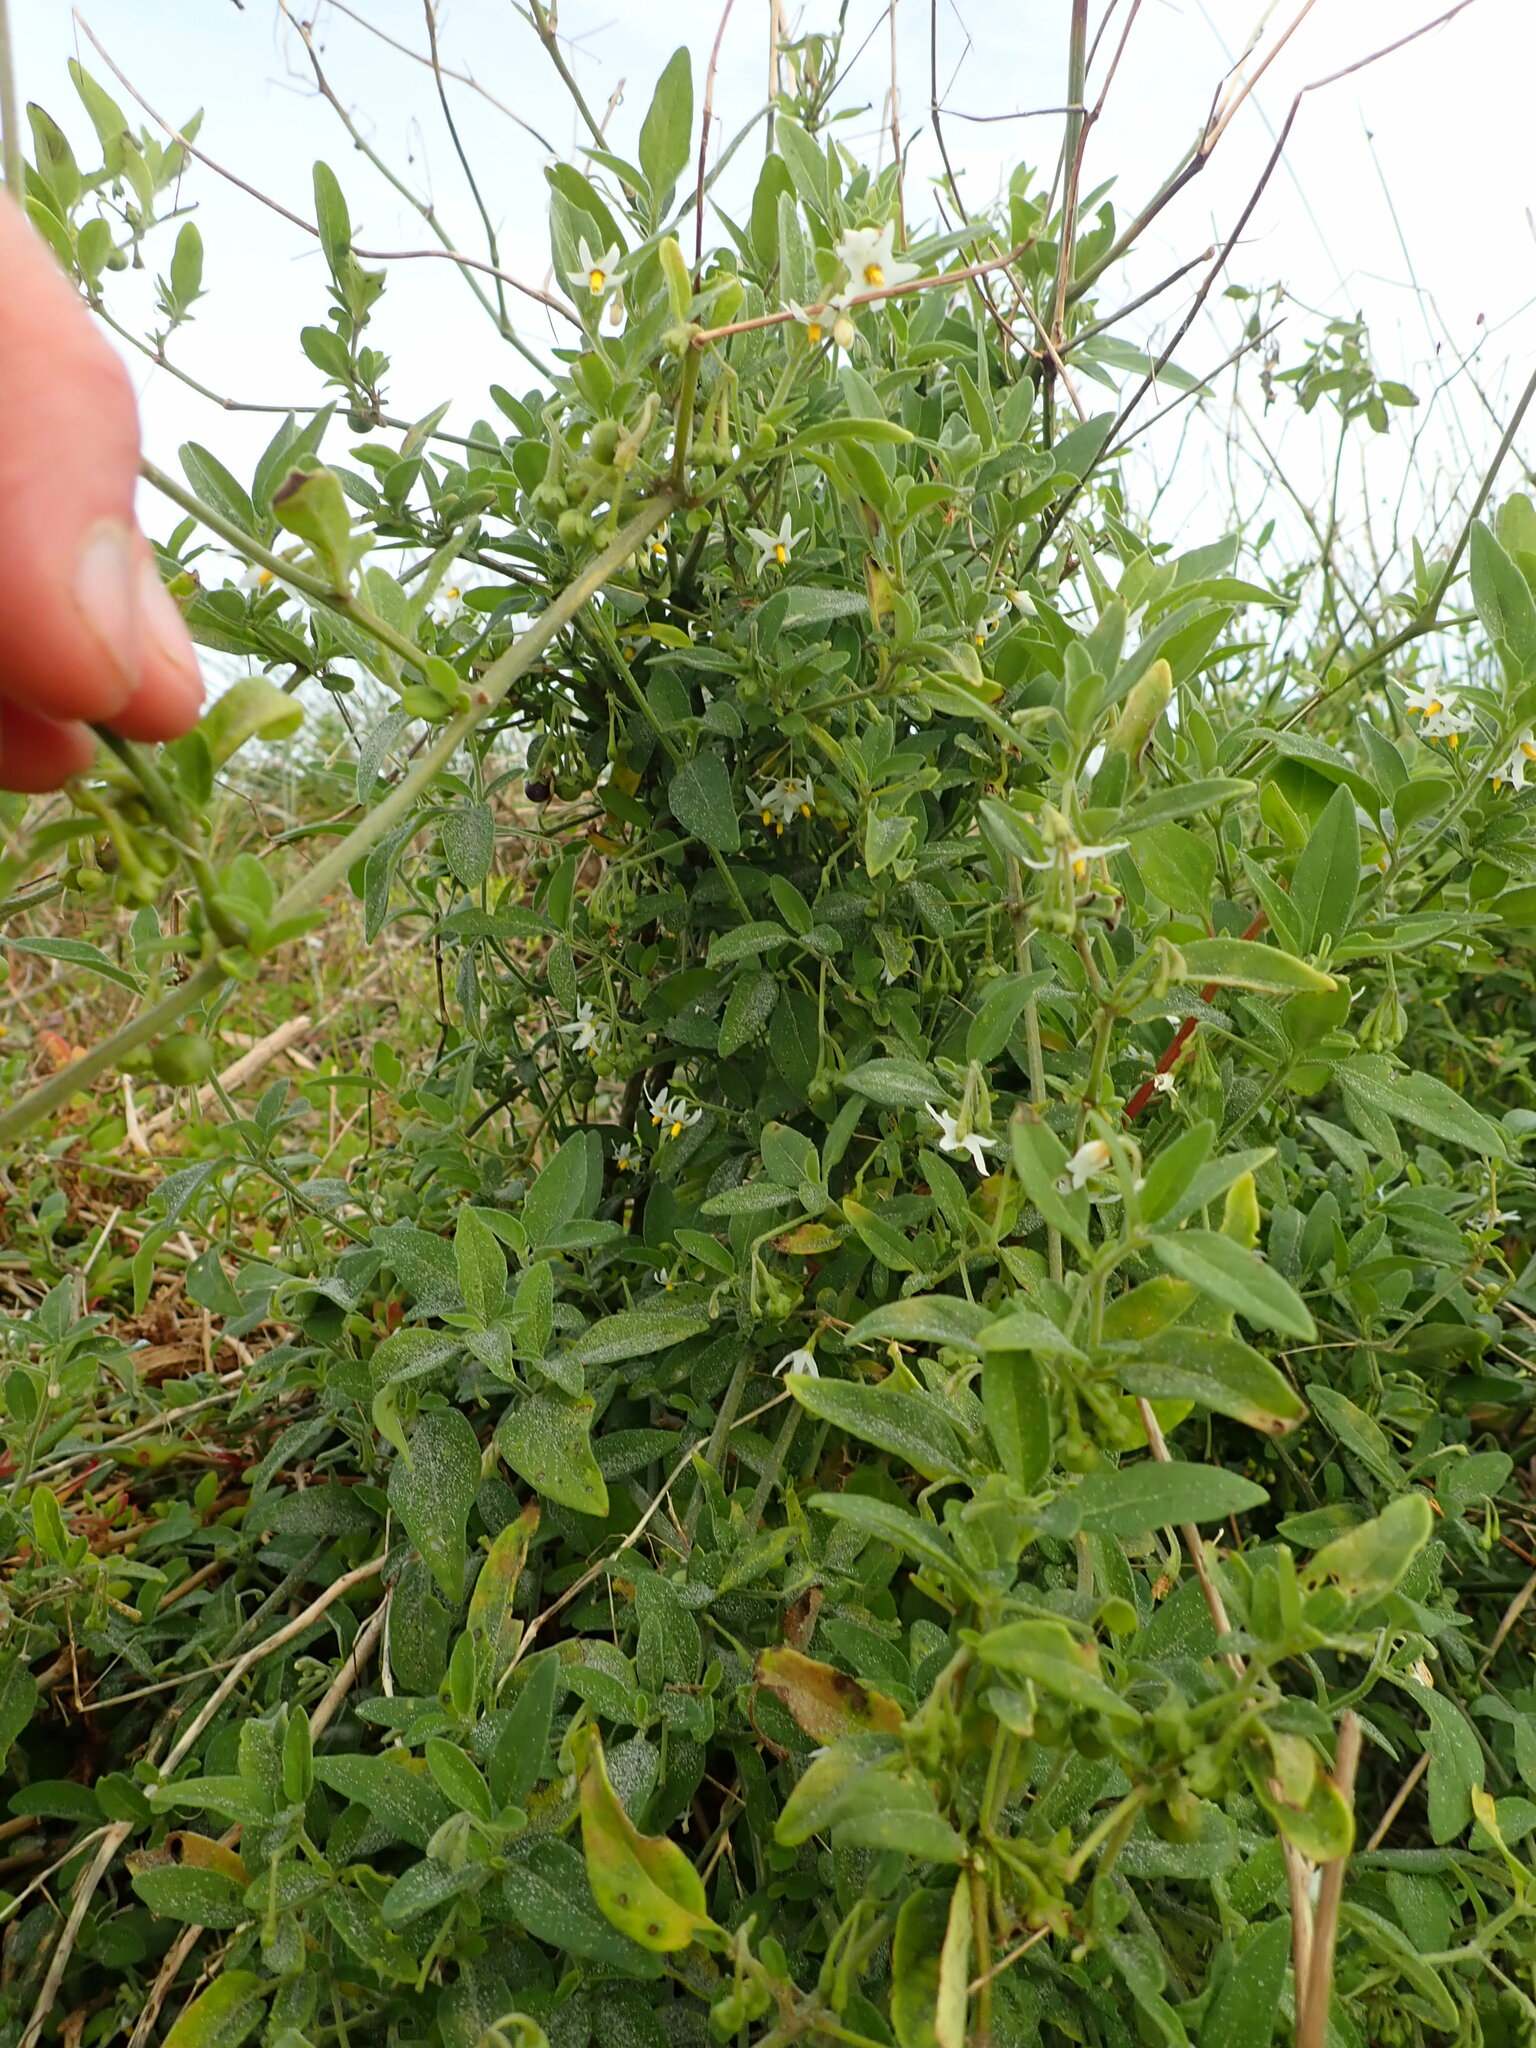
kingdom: Plantae
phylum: Tracheophyta
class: Magnoliopsida
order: Solanales
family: Solanaceae
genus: Solanum
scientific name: Solanum chenopodioides
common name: Tall nightshade
